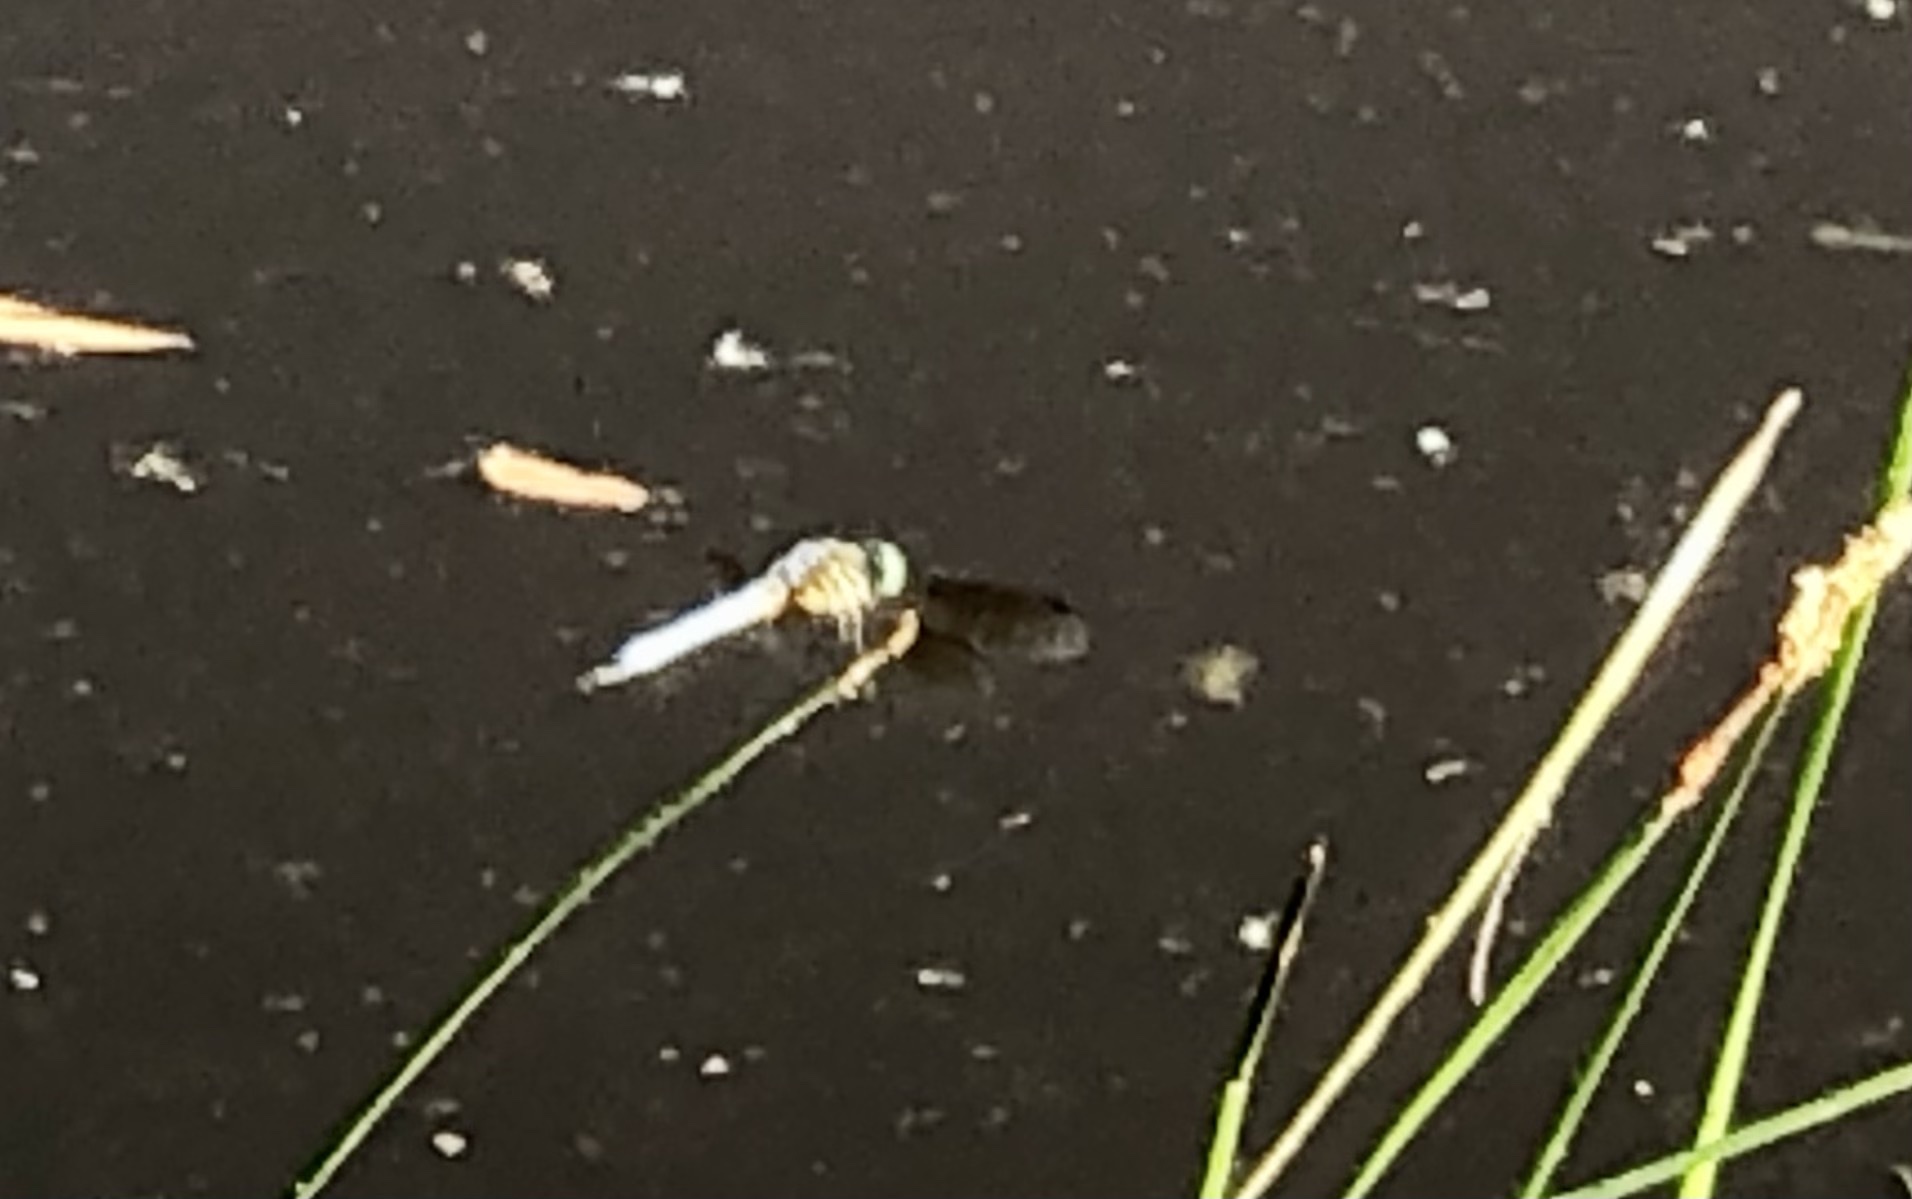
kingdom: Animalia
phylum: Arthropoda
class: Insecta
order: Odonata
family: Libellulidae
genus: Pachydiplax
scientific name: Pachydiplax longipennis
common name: Blue dasher
